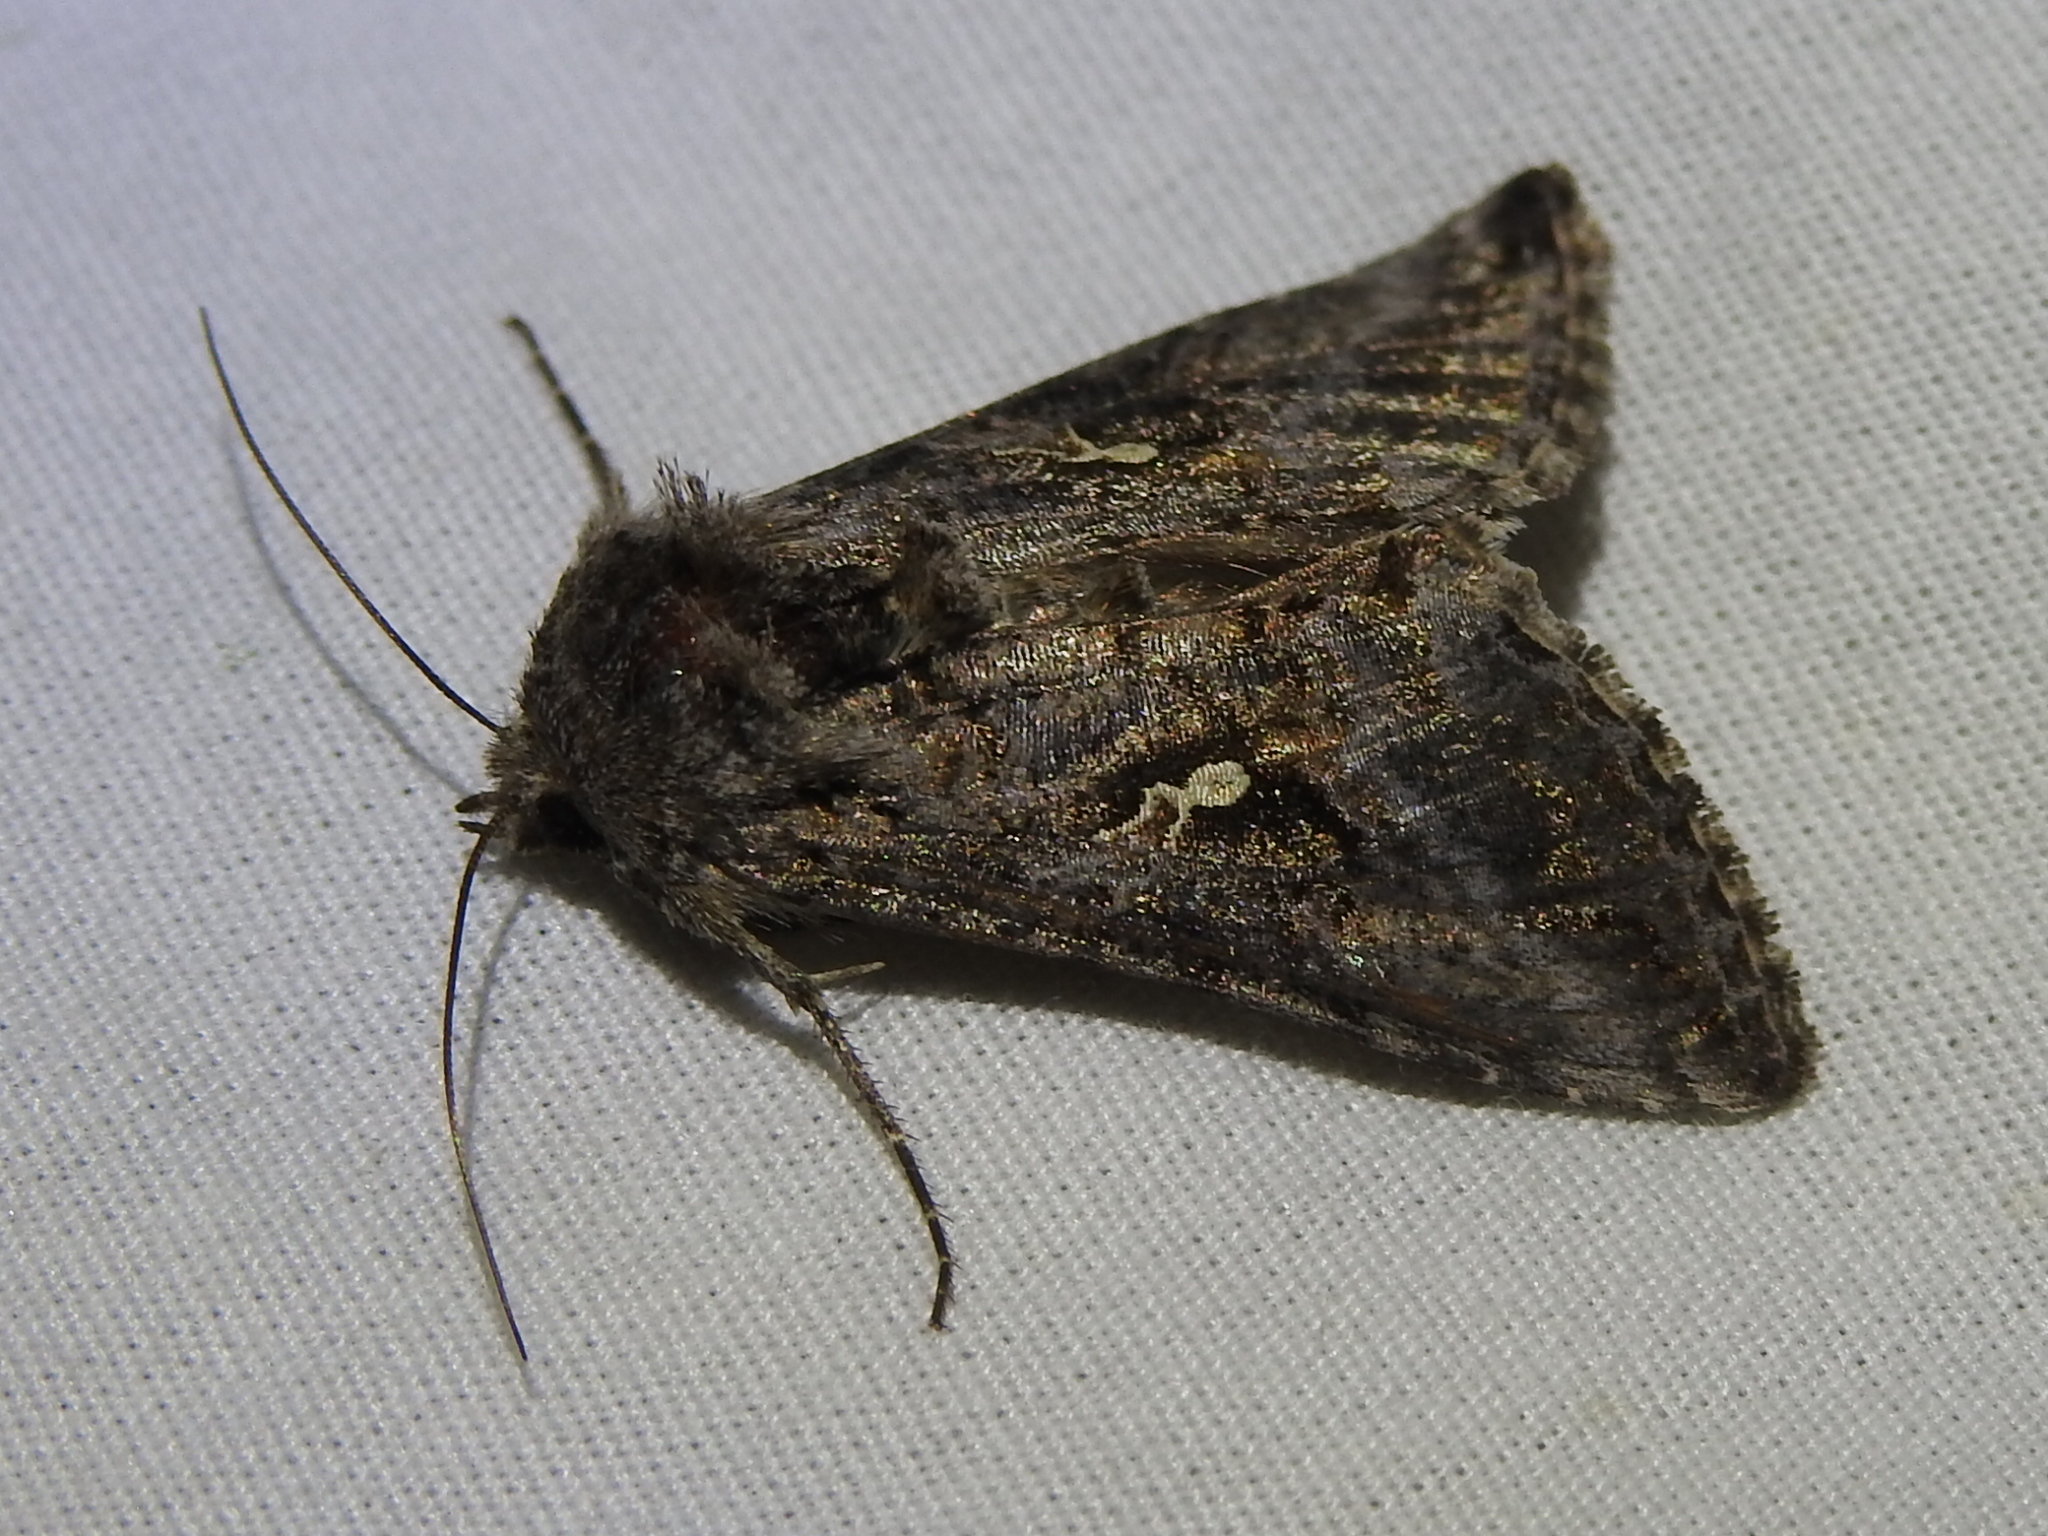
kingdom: Animalia
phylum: Arthropoda
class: Insecta
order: Lepidoptera
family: Noctuidae
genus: Rachiplusia
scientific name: Rachiplusia ou
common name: Gray looper moth
